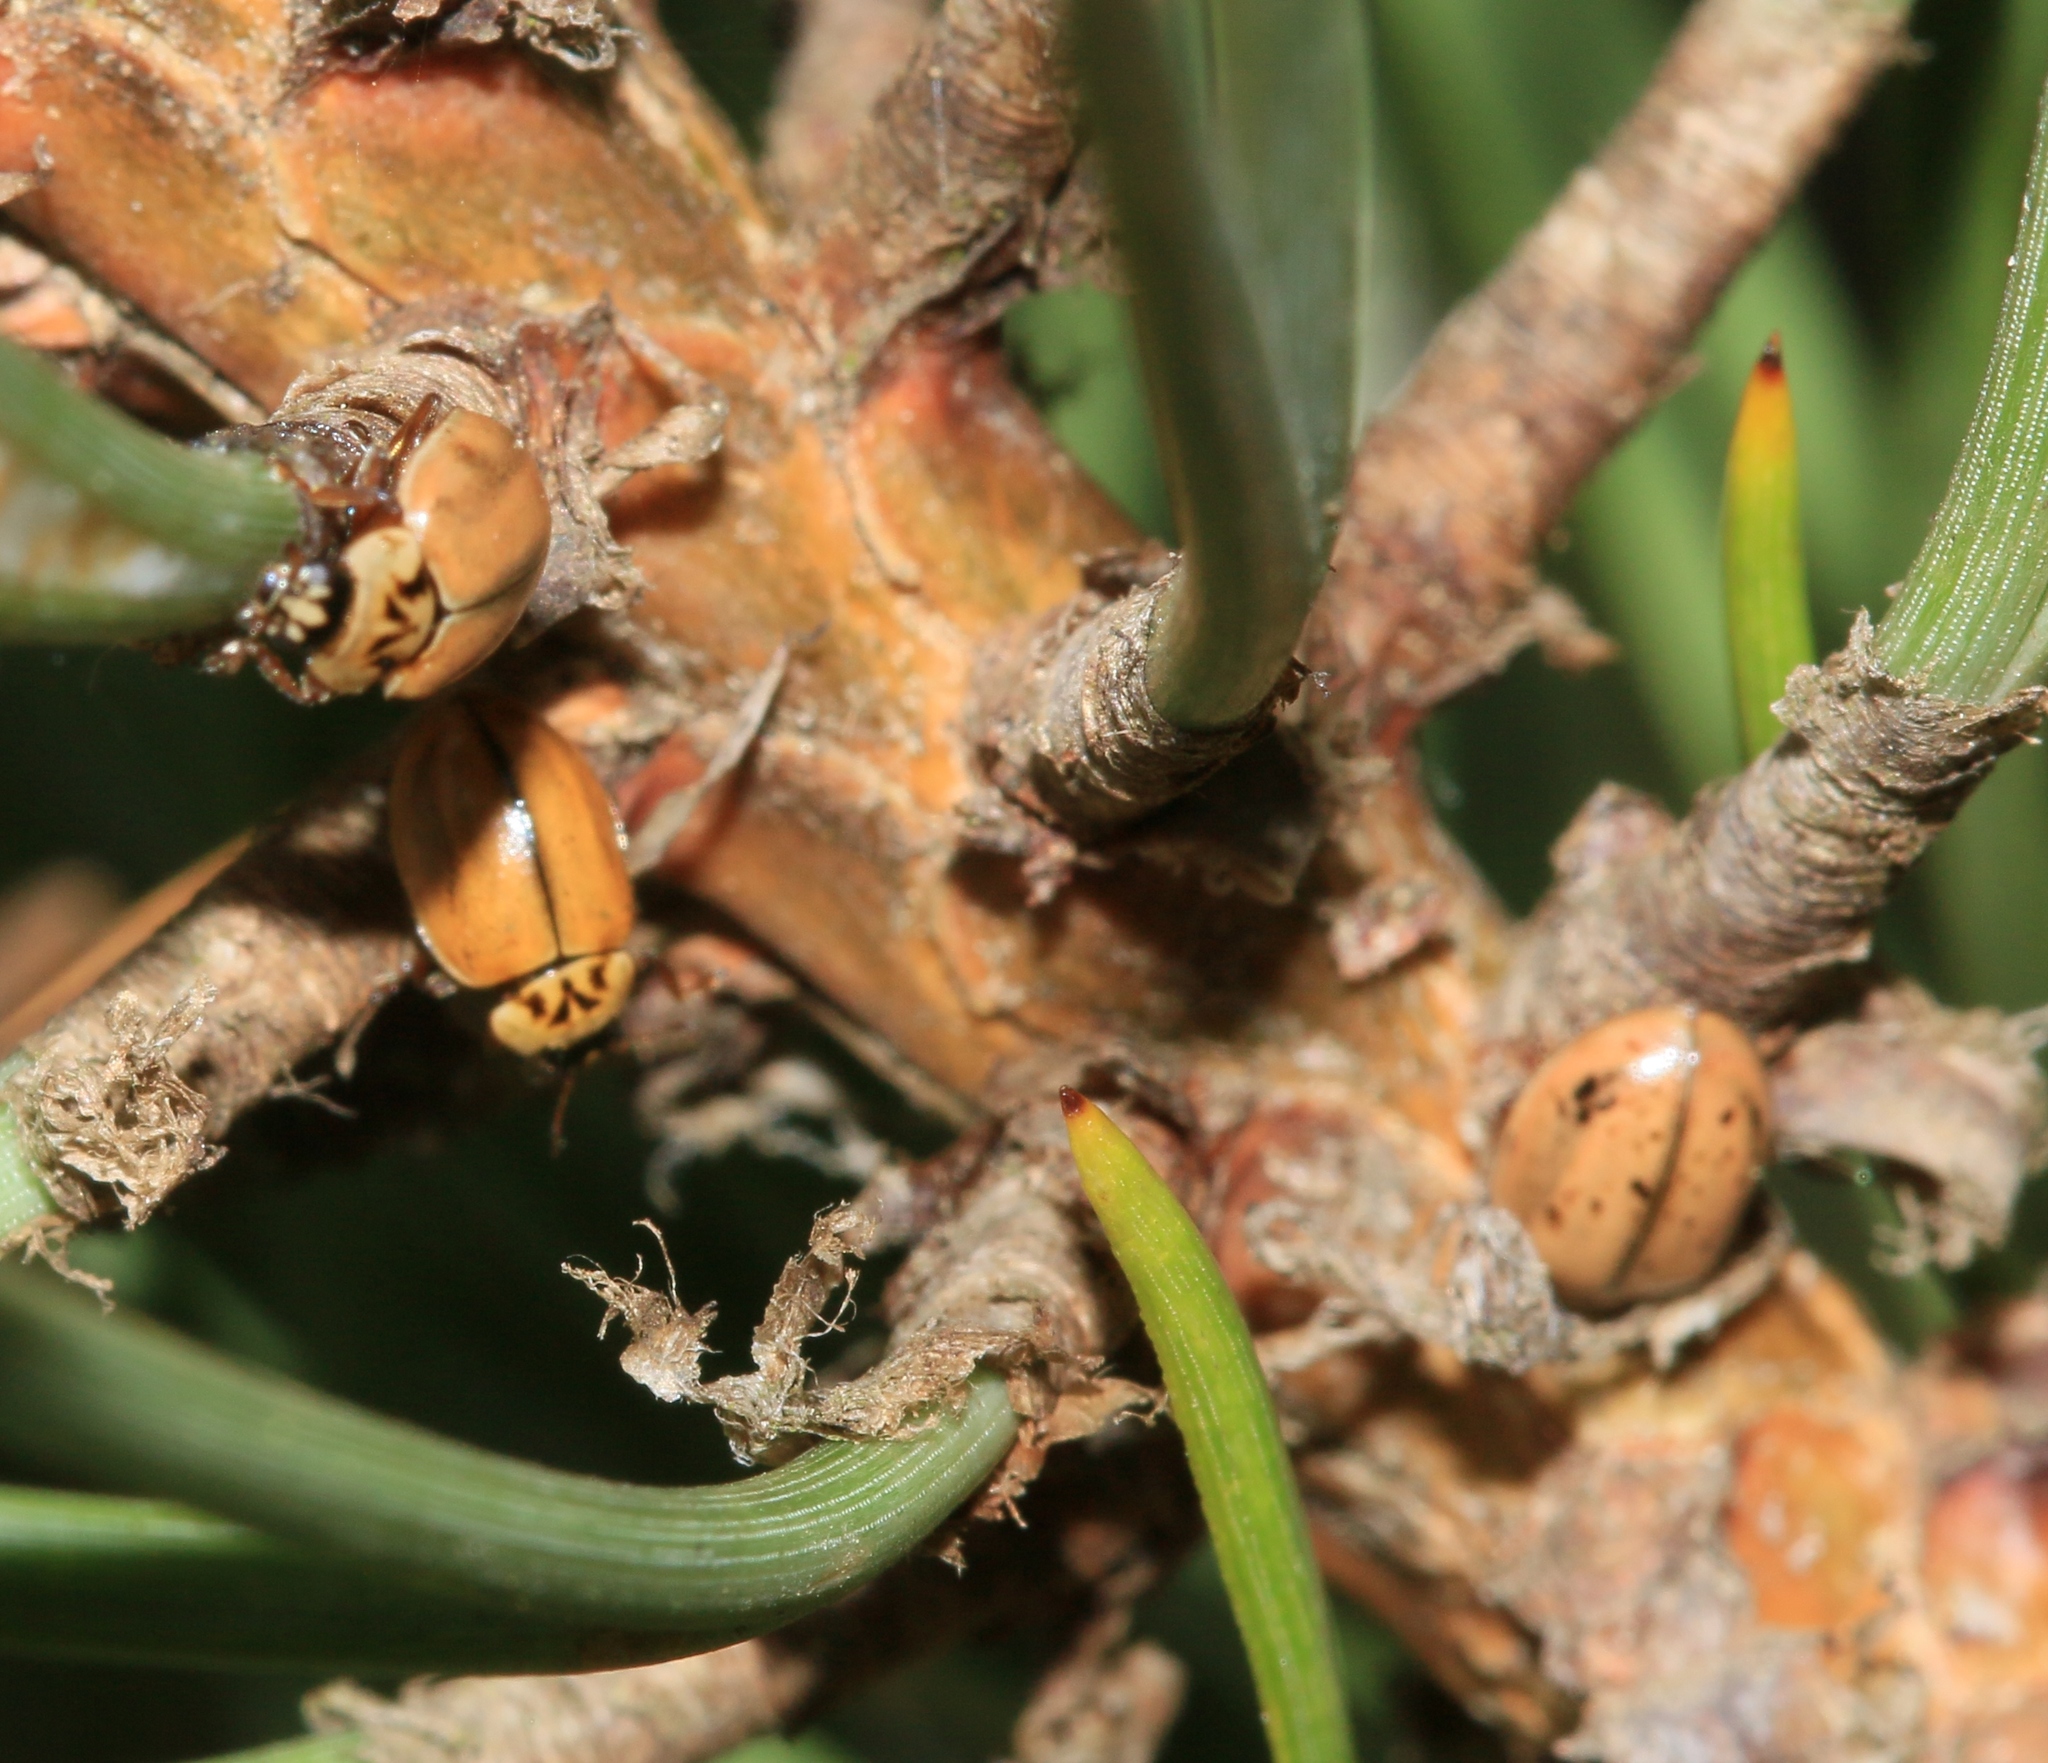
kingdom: Animalia
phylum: Arthropoda
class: Insecta
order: Coleoptera
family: Coccinellidae
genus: Aphidecta
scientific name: Aphidecta obliterata
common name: Larch ladybird
